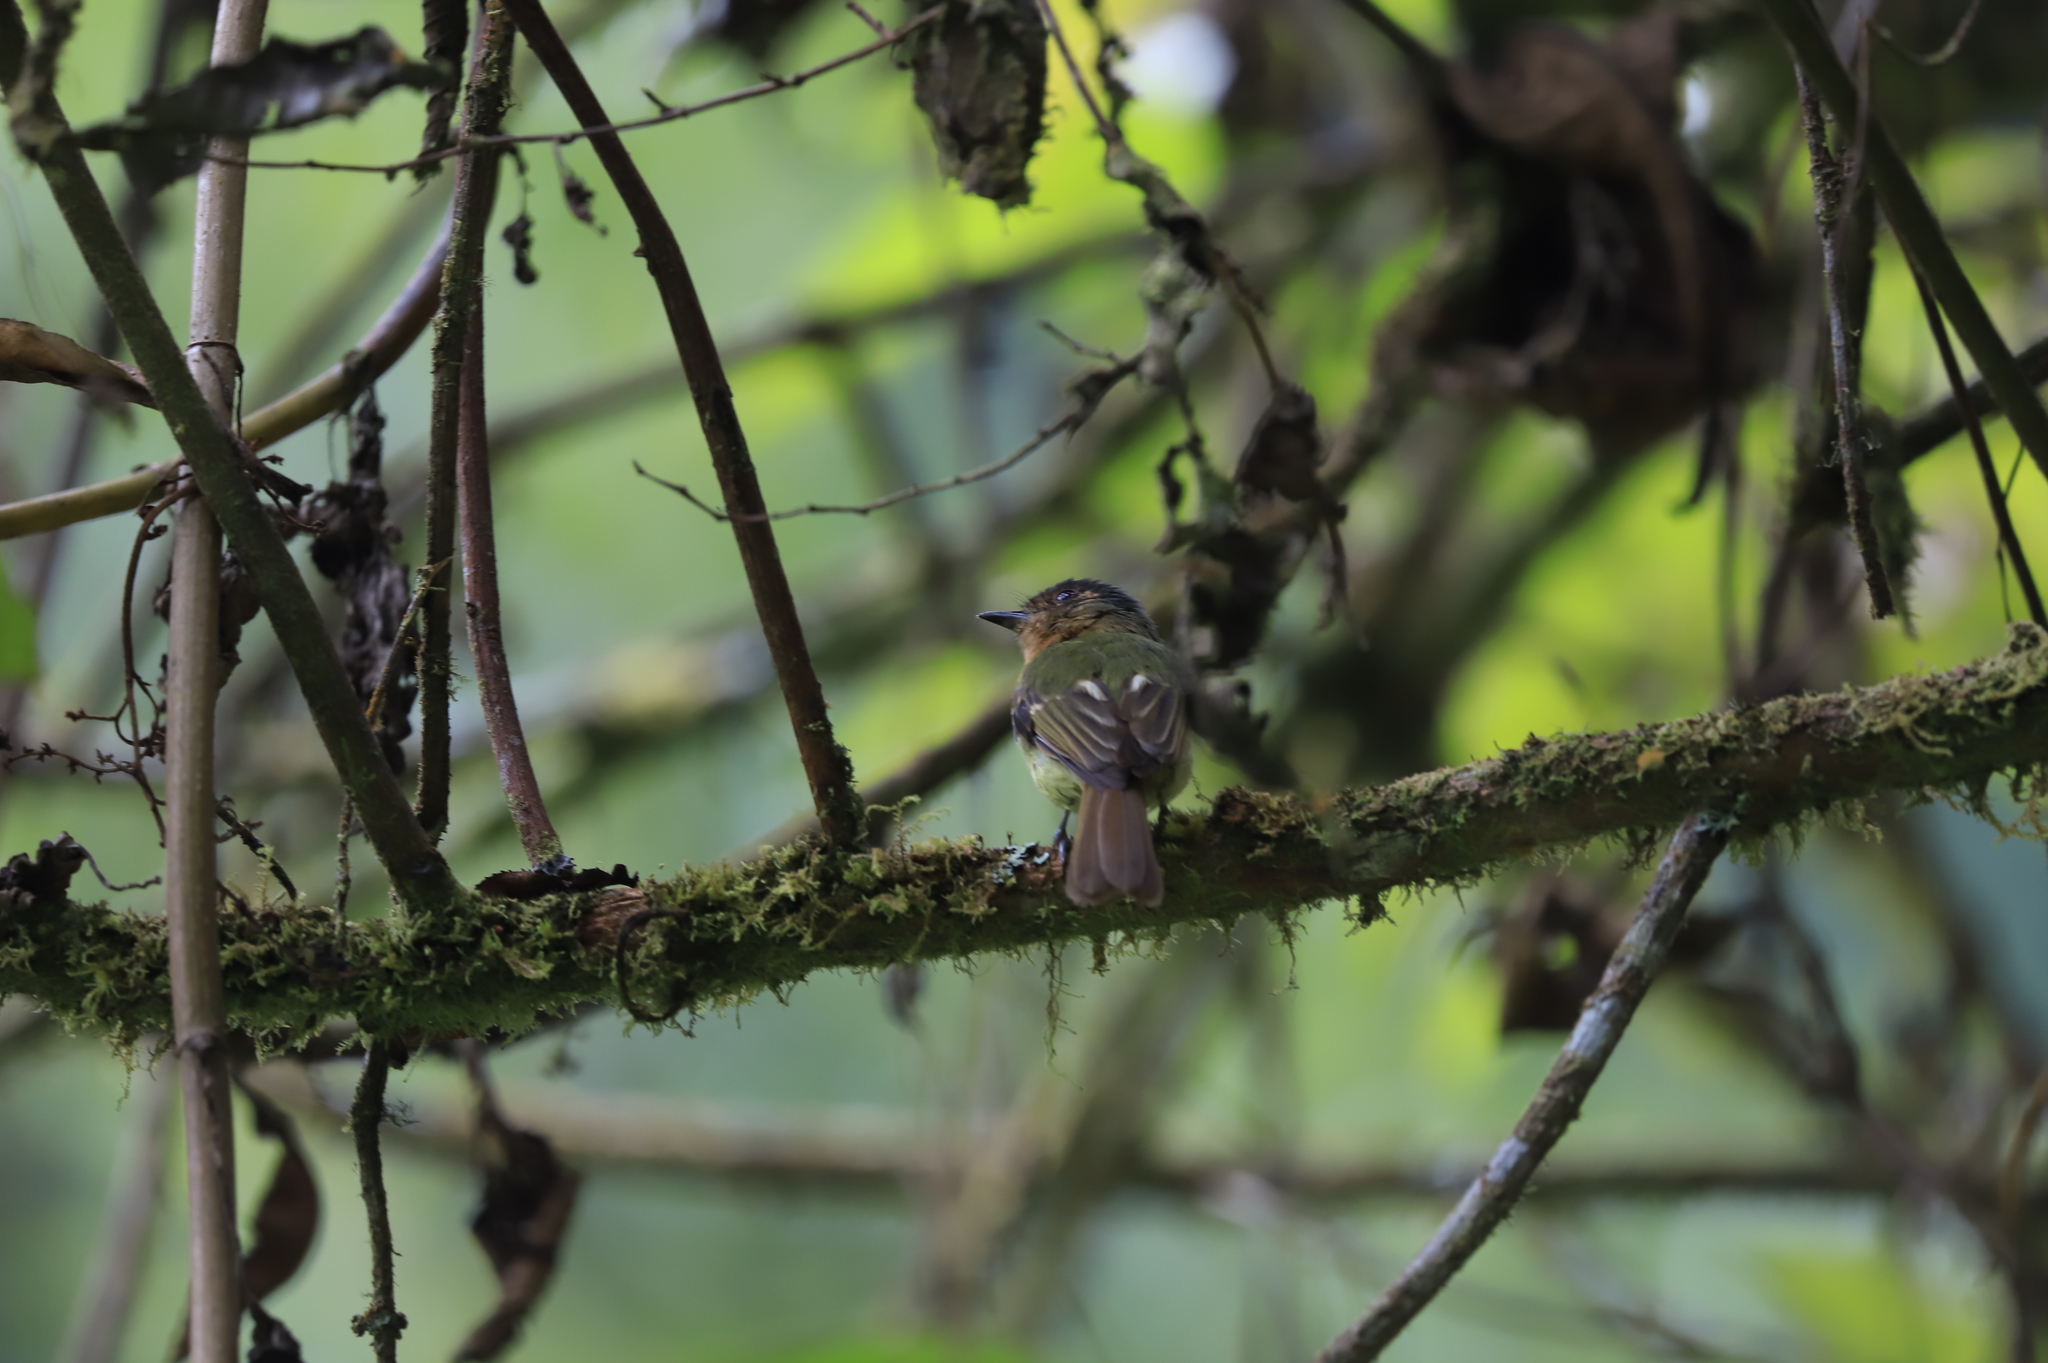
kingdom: Animalia
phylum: Chordata
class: Aves
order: Passeriformes
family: Tyrannidae
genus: Leptopogon
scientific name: Leptopogon rufipectus
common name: Rufous-breasted flycatcher
